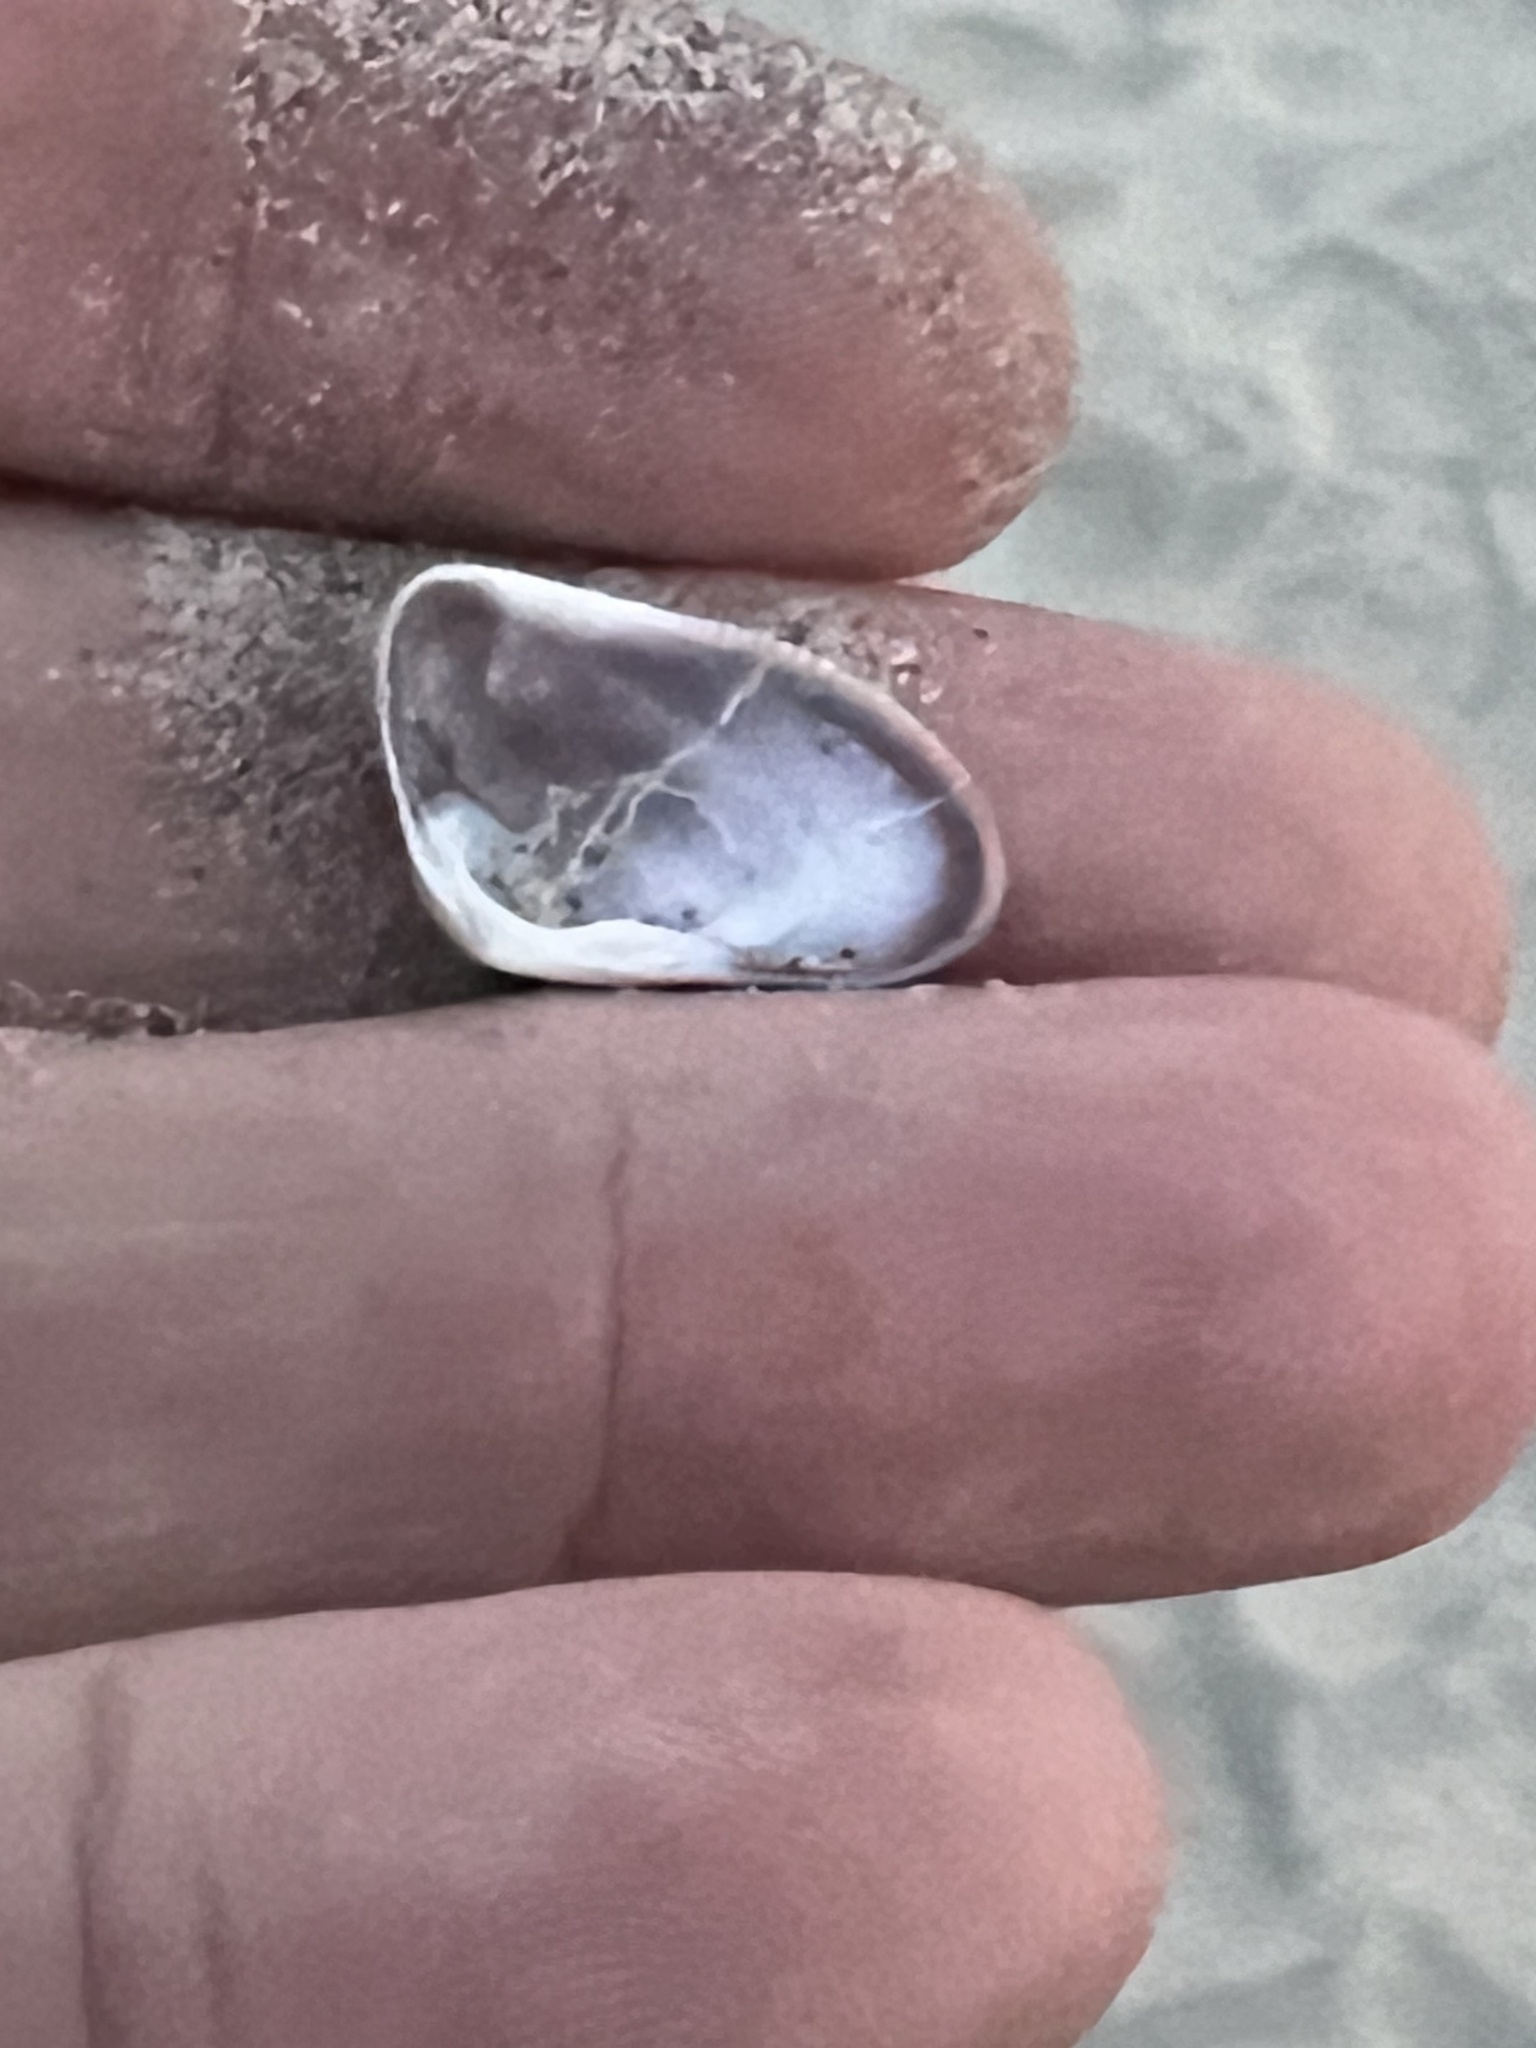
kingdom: Animalia
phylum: Mollusca
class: Bivalvia
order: Cardiida
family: Donacidae
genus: Donax
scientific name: Donax gouldii
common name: Gould beanclam
